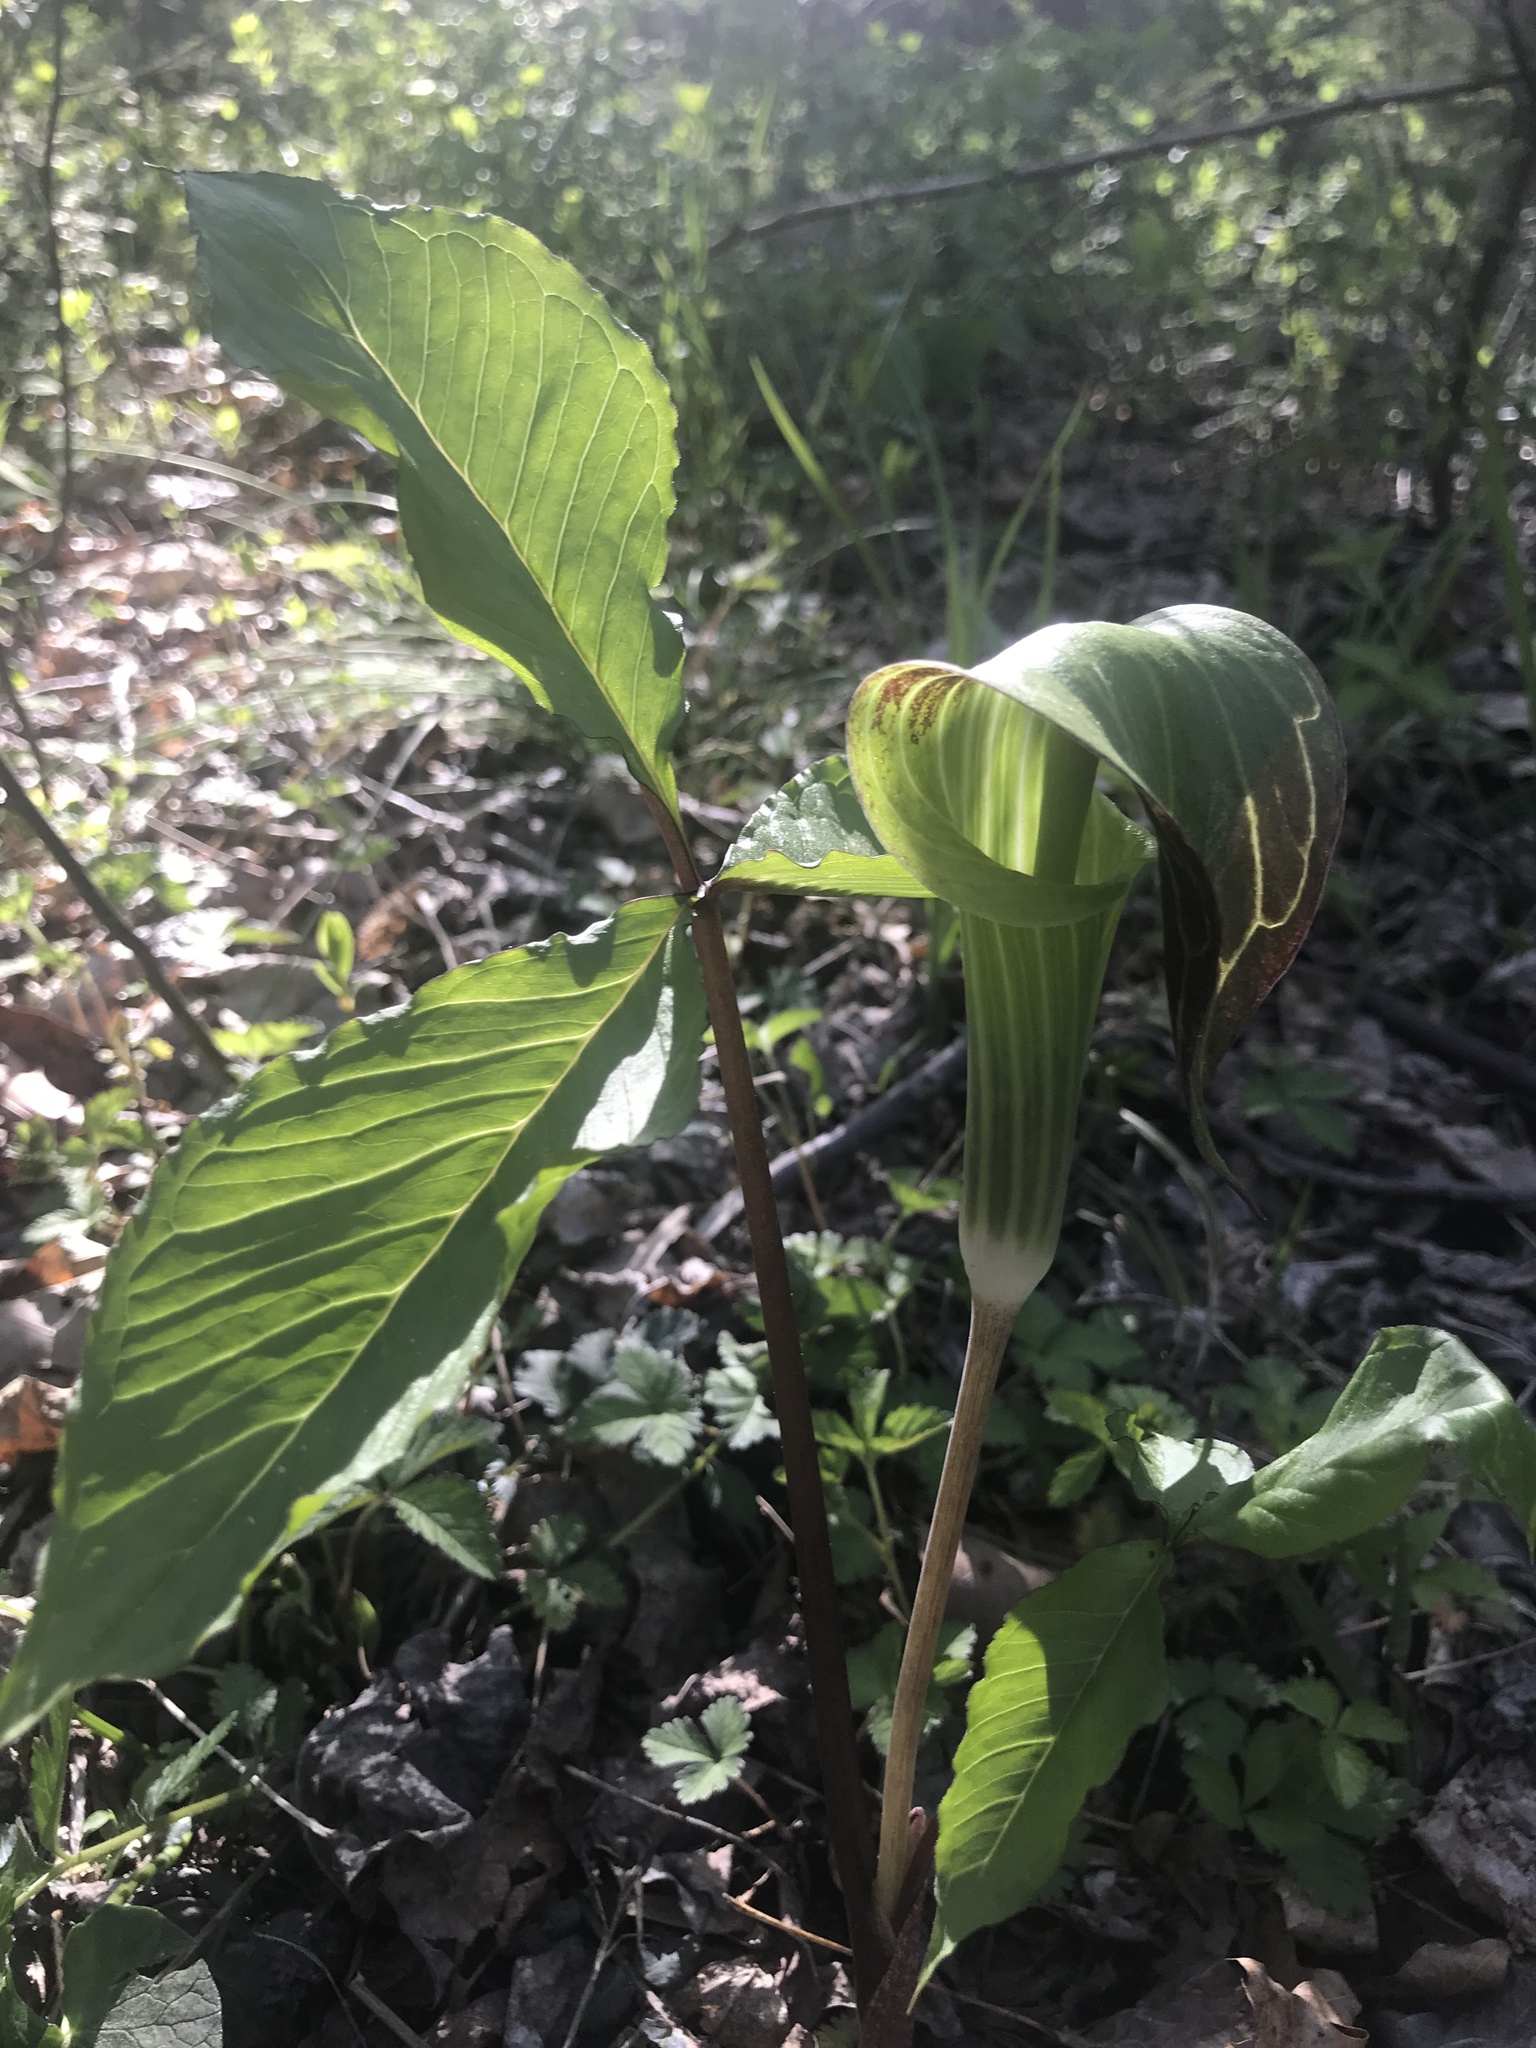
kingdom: Plantae
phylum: Tracheophyta
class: Liliopsida
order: Alismatales
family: Araceae
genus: Arisaema
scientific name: Arisaema triphyllum
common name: Jack-in-the-pulpit
